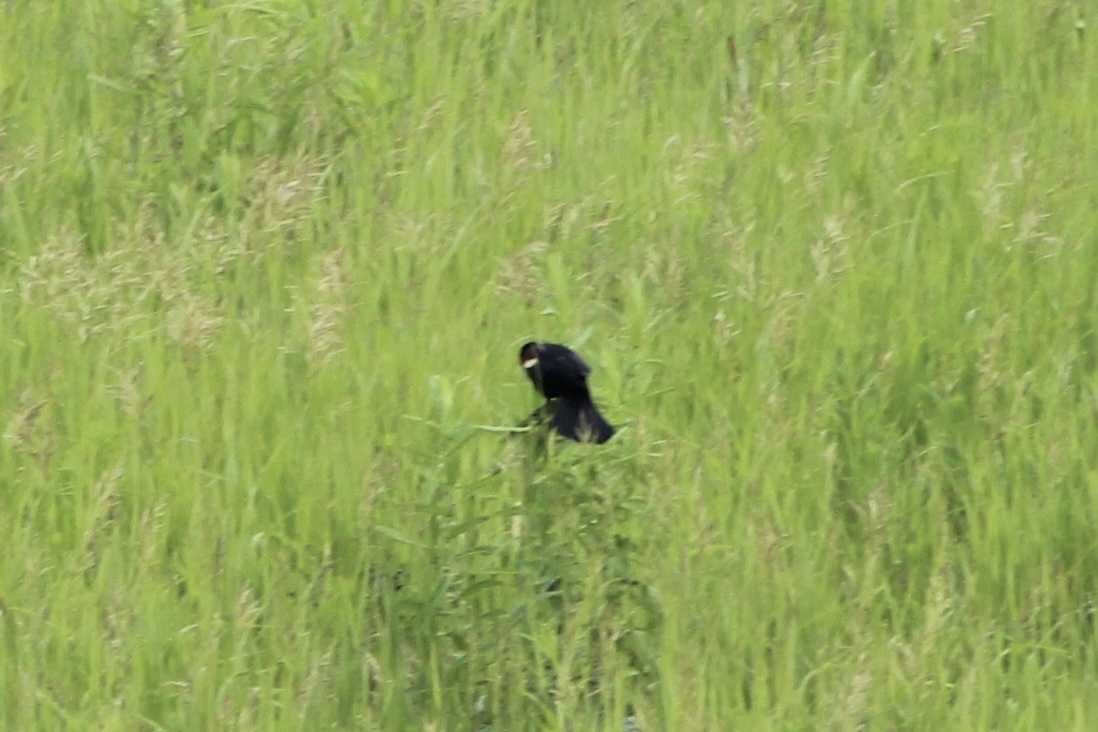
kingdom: Animalia
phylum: Chordata
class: Aves
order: Passeriformes
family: Icteridae
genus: Agelaius
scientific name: Agelaius phoeniceus
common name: Red-winged blackbird
